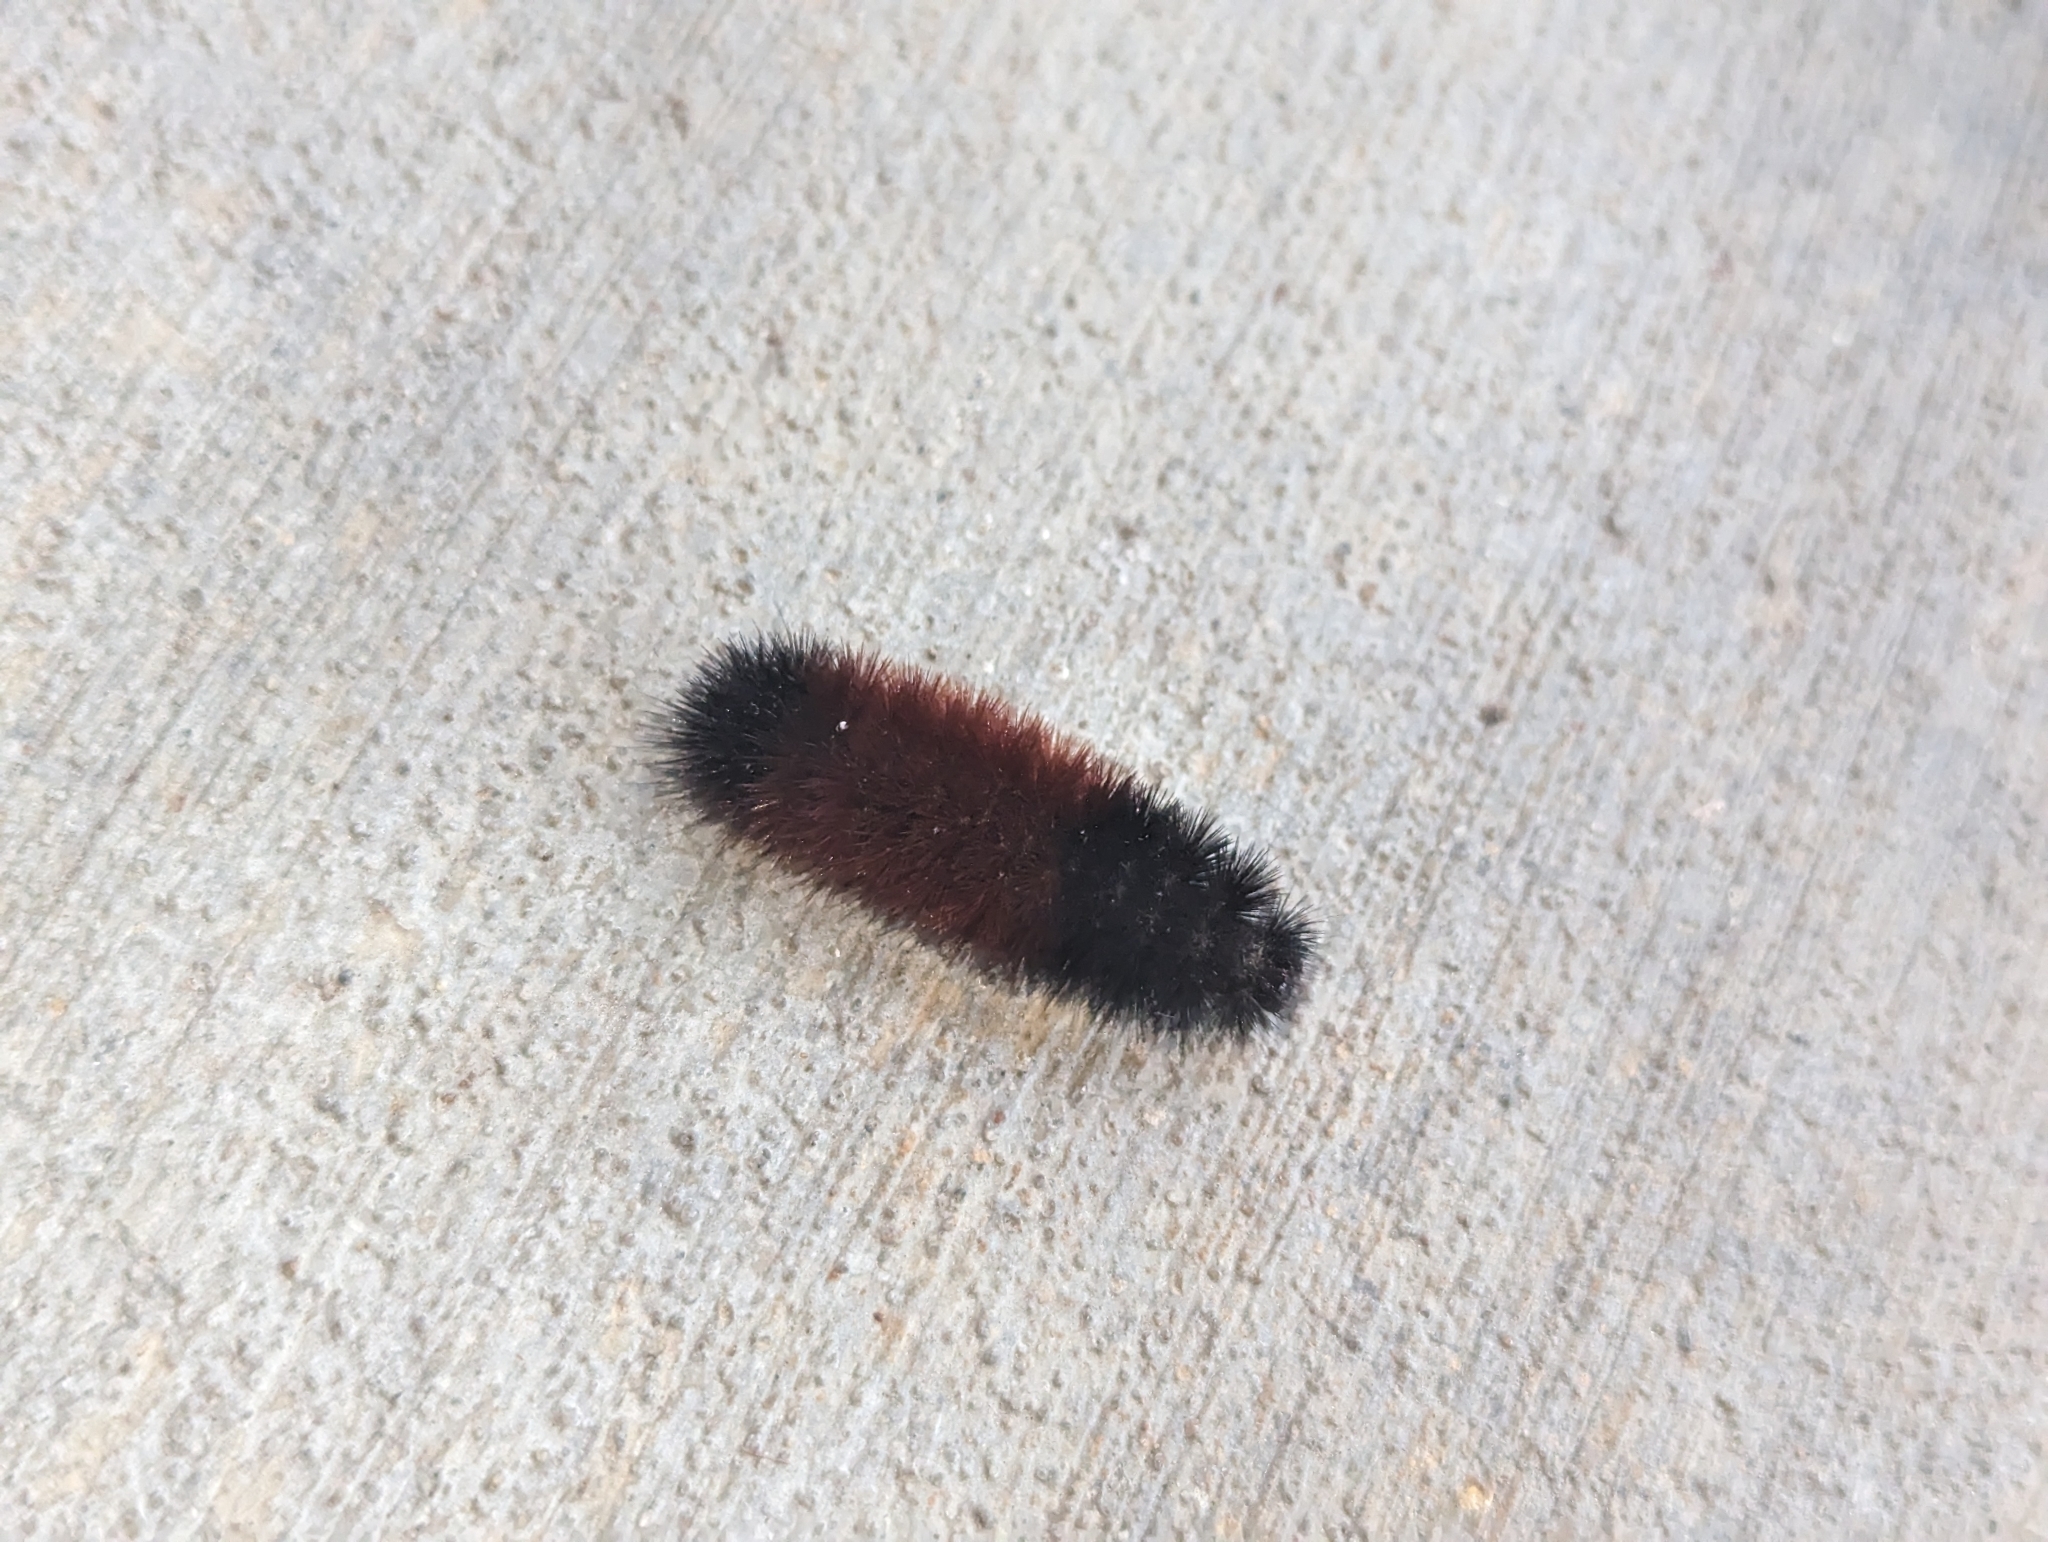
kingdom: Animalia
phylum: Arthropoda
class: Insecta
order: Lepidoptera
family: Erebidae
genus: Pyrrharctia
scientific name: Pyrrharctia isabella
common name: Isabella tiger moth
